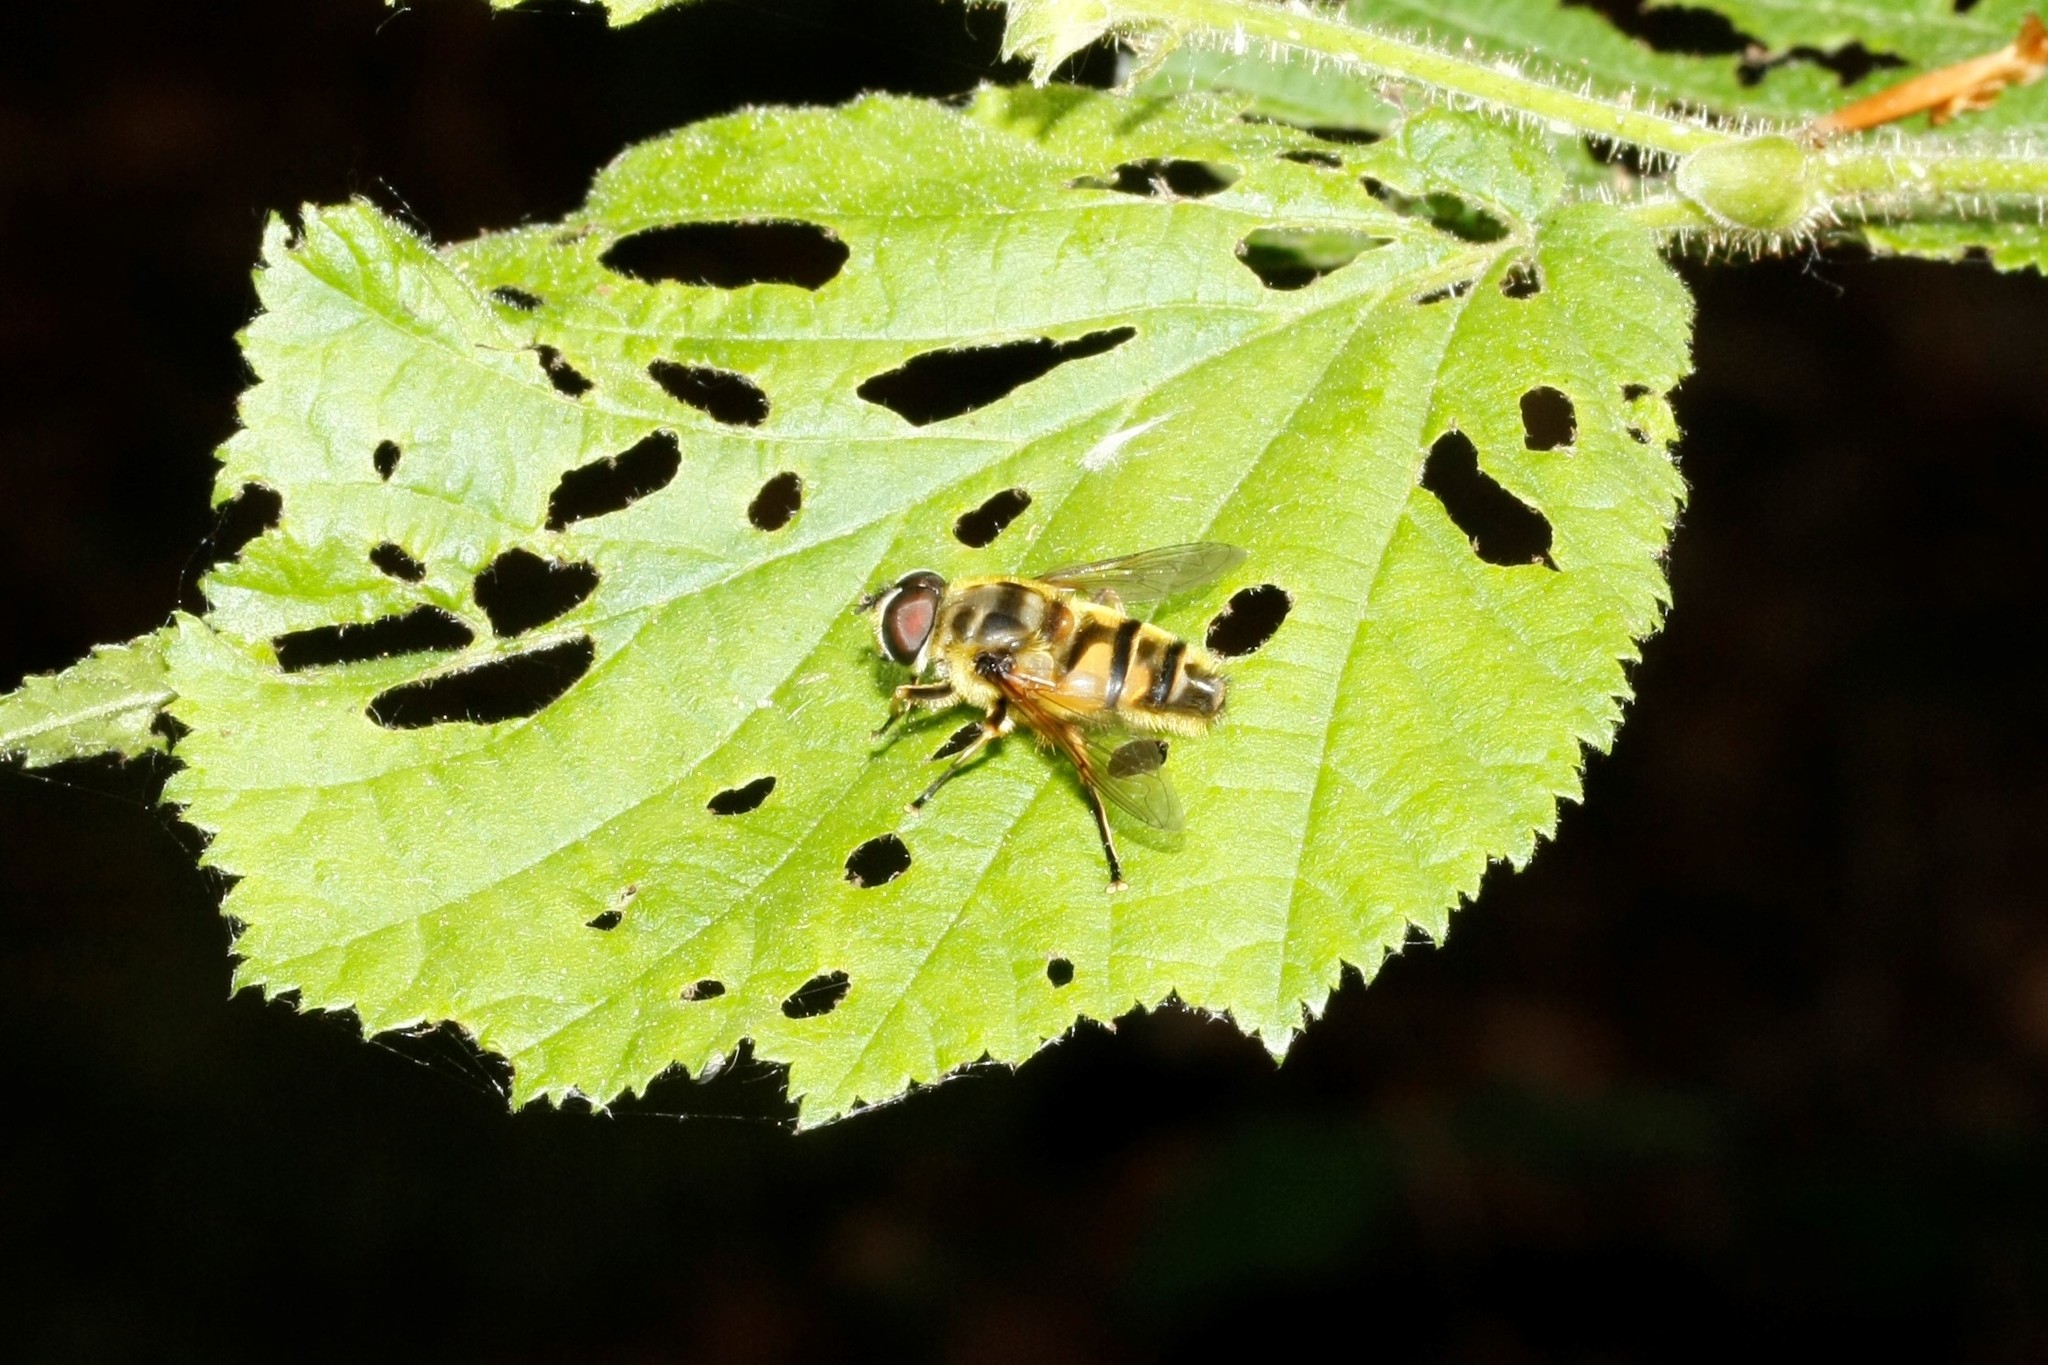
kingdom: Animalia
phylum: Arthropoda
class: Insecta
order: Diptera
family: Syrphidae
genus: Myathropa
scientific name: Myathropa florea
